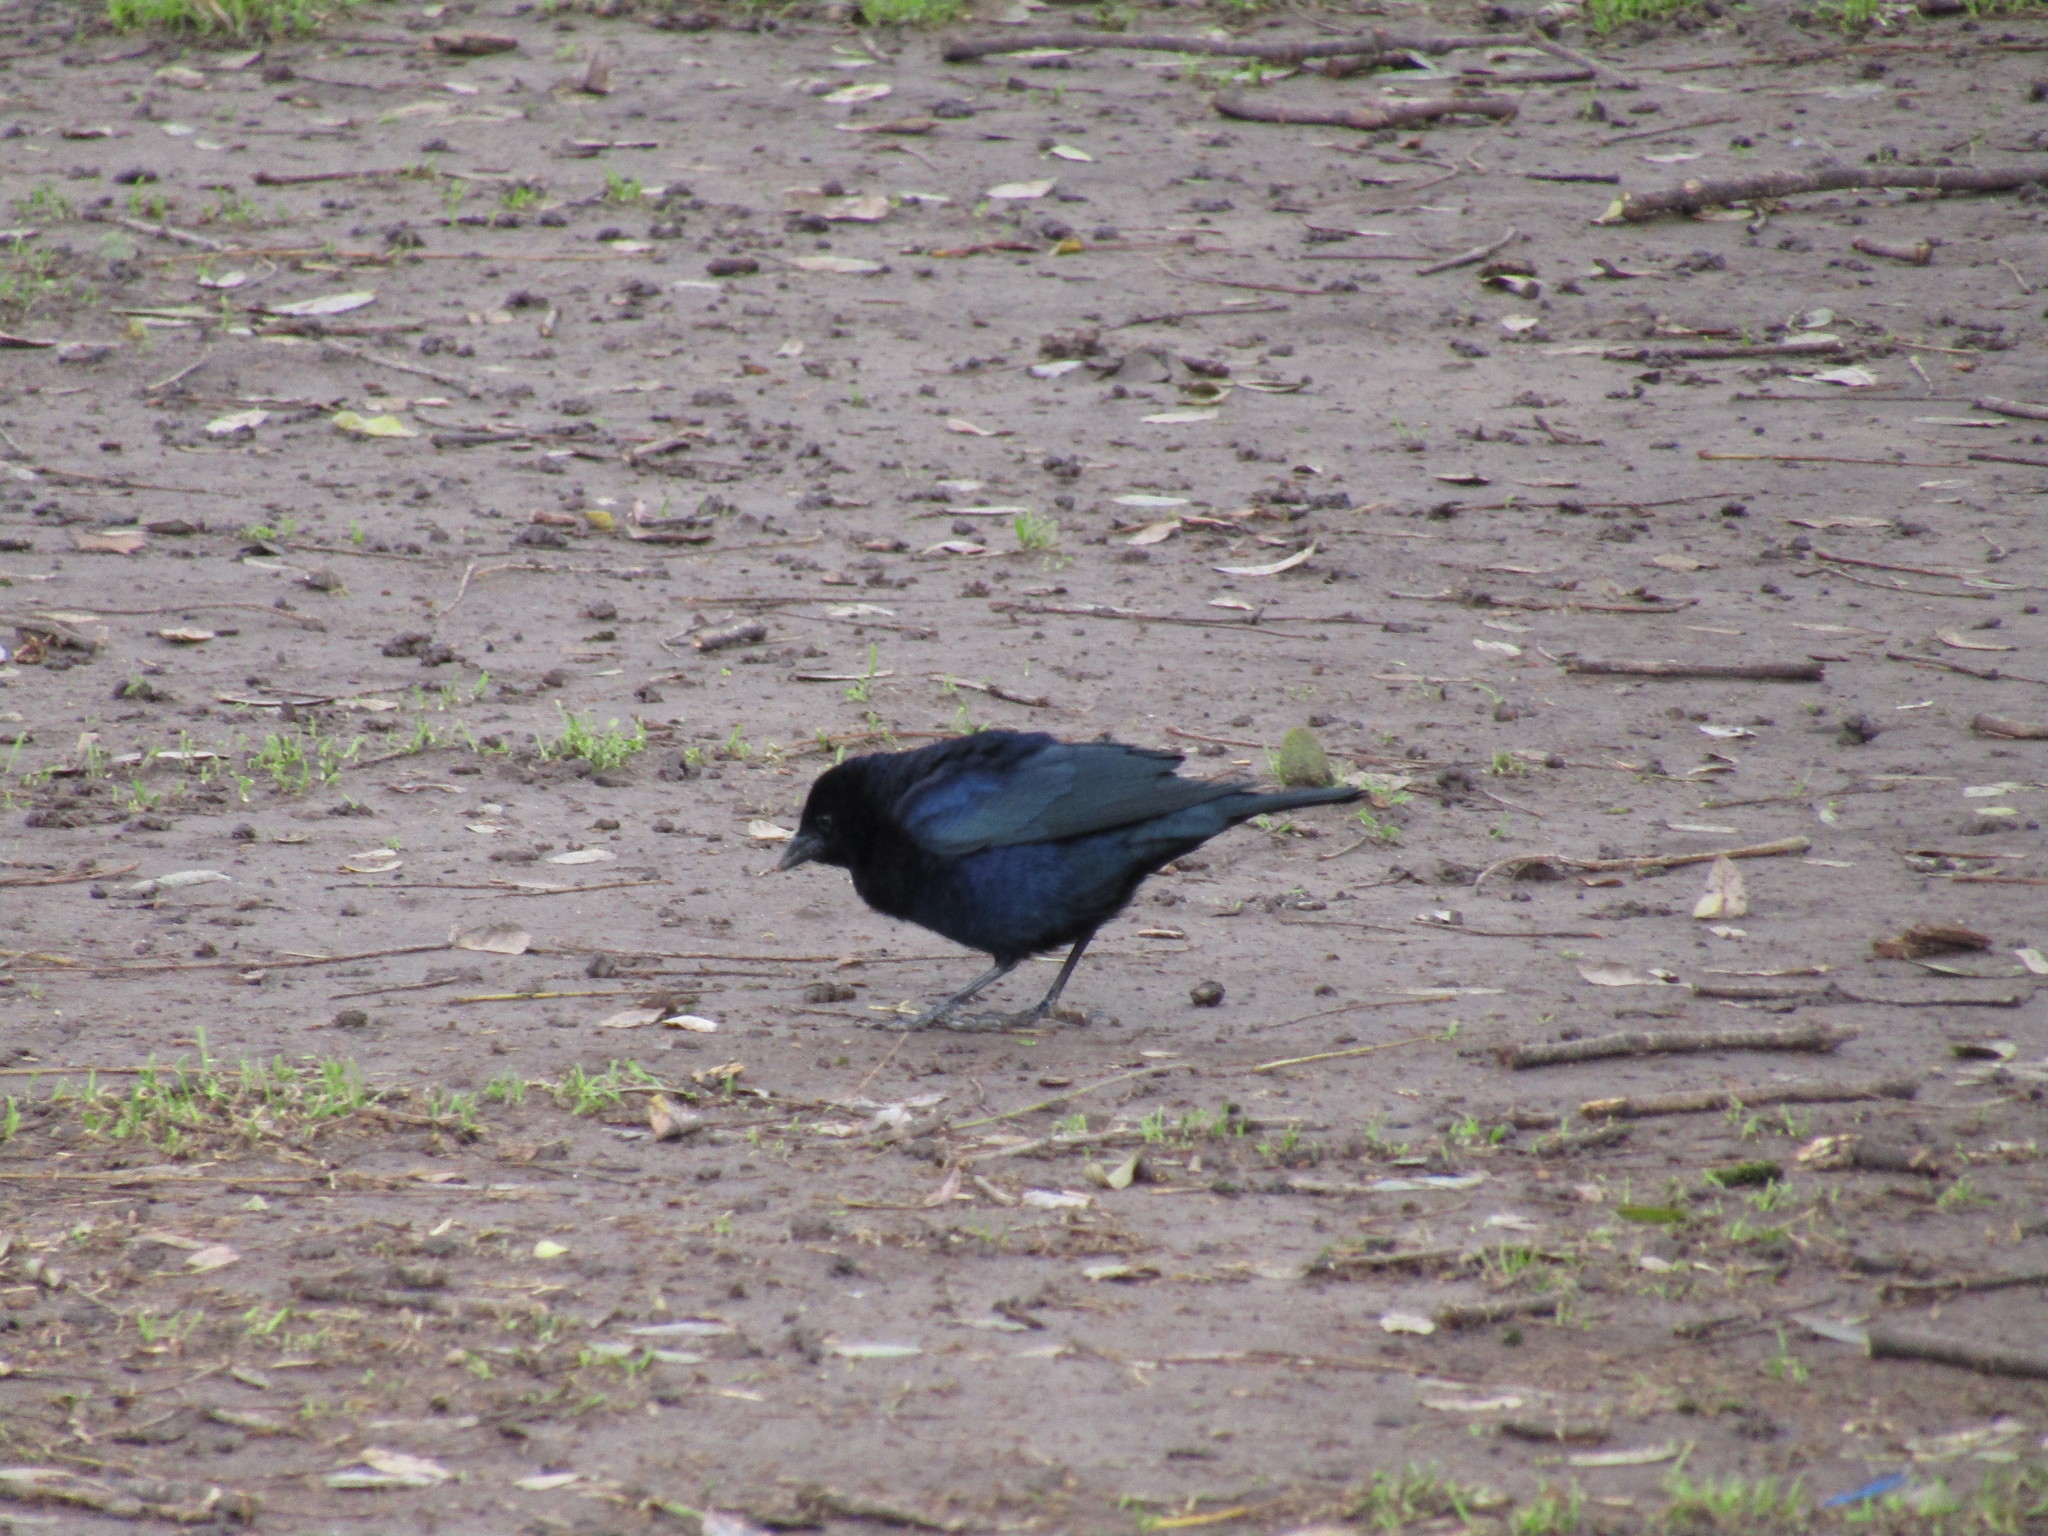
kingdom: Animalia
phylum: Chordata
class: Aves
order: Passeriformes
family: Icteridae
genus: Molothrus
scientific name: Molothrus bonariensis
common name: Shiny cowbird
